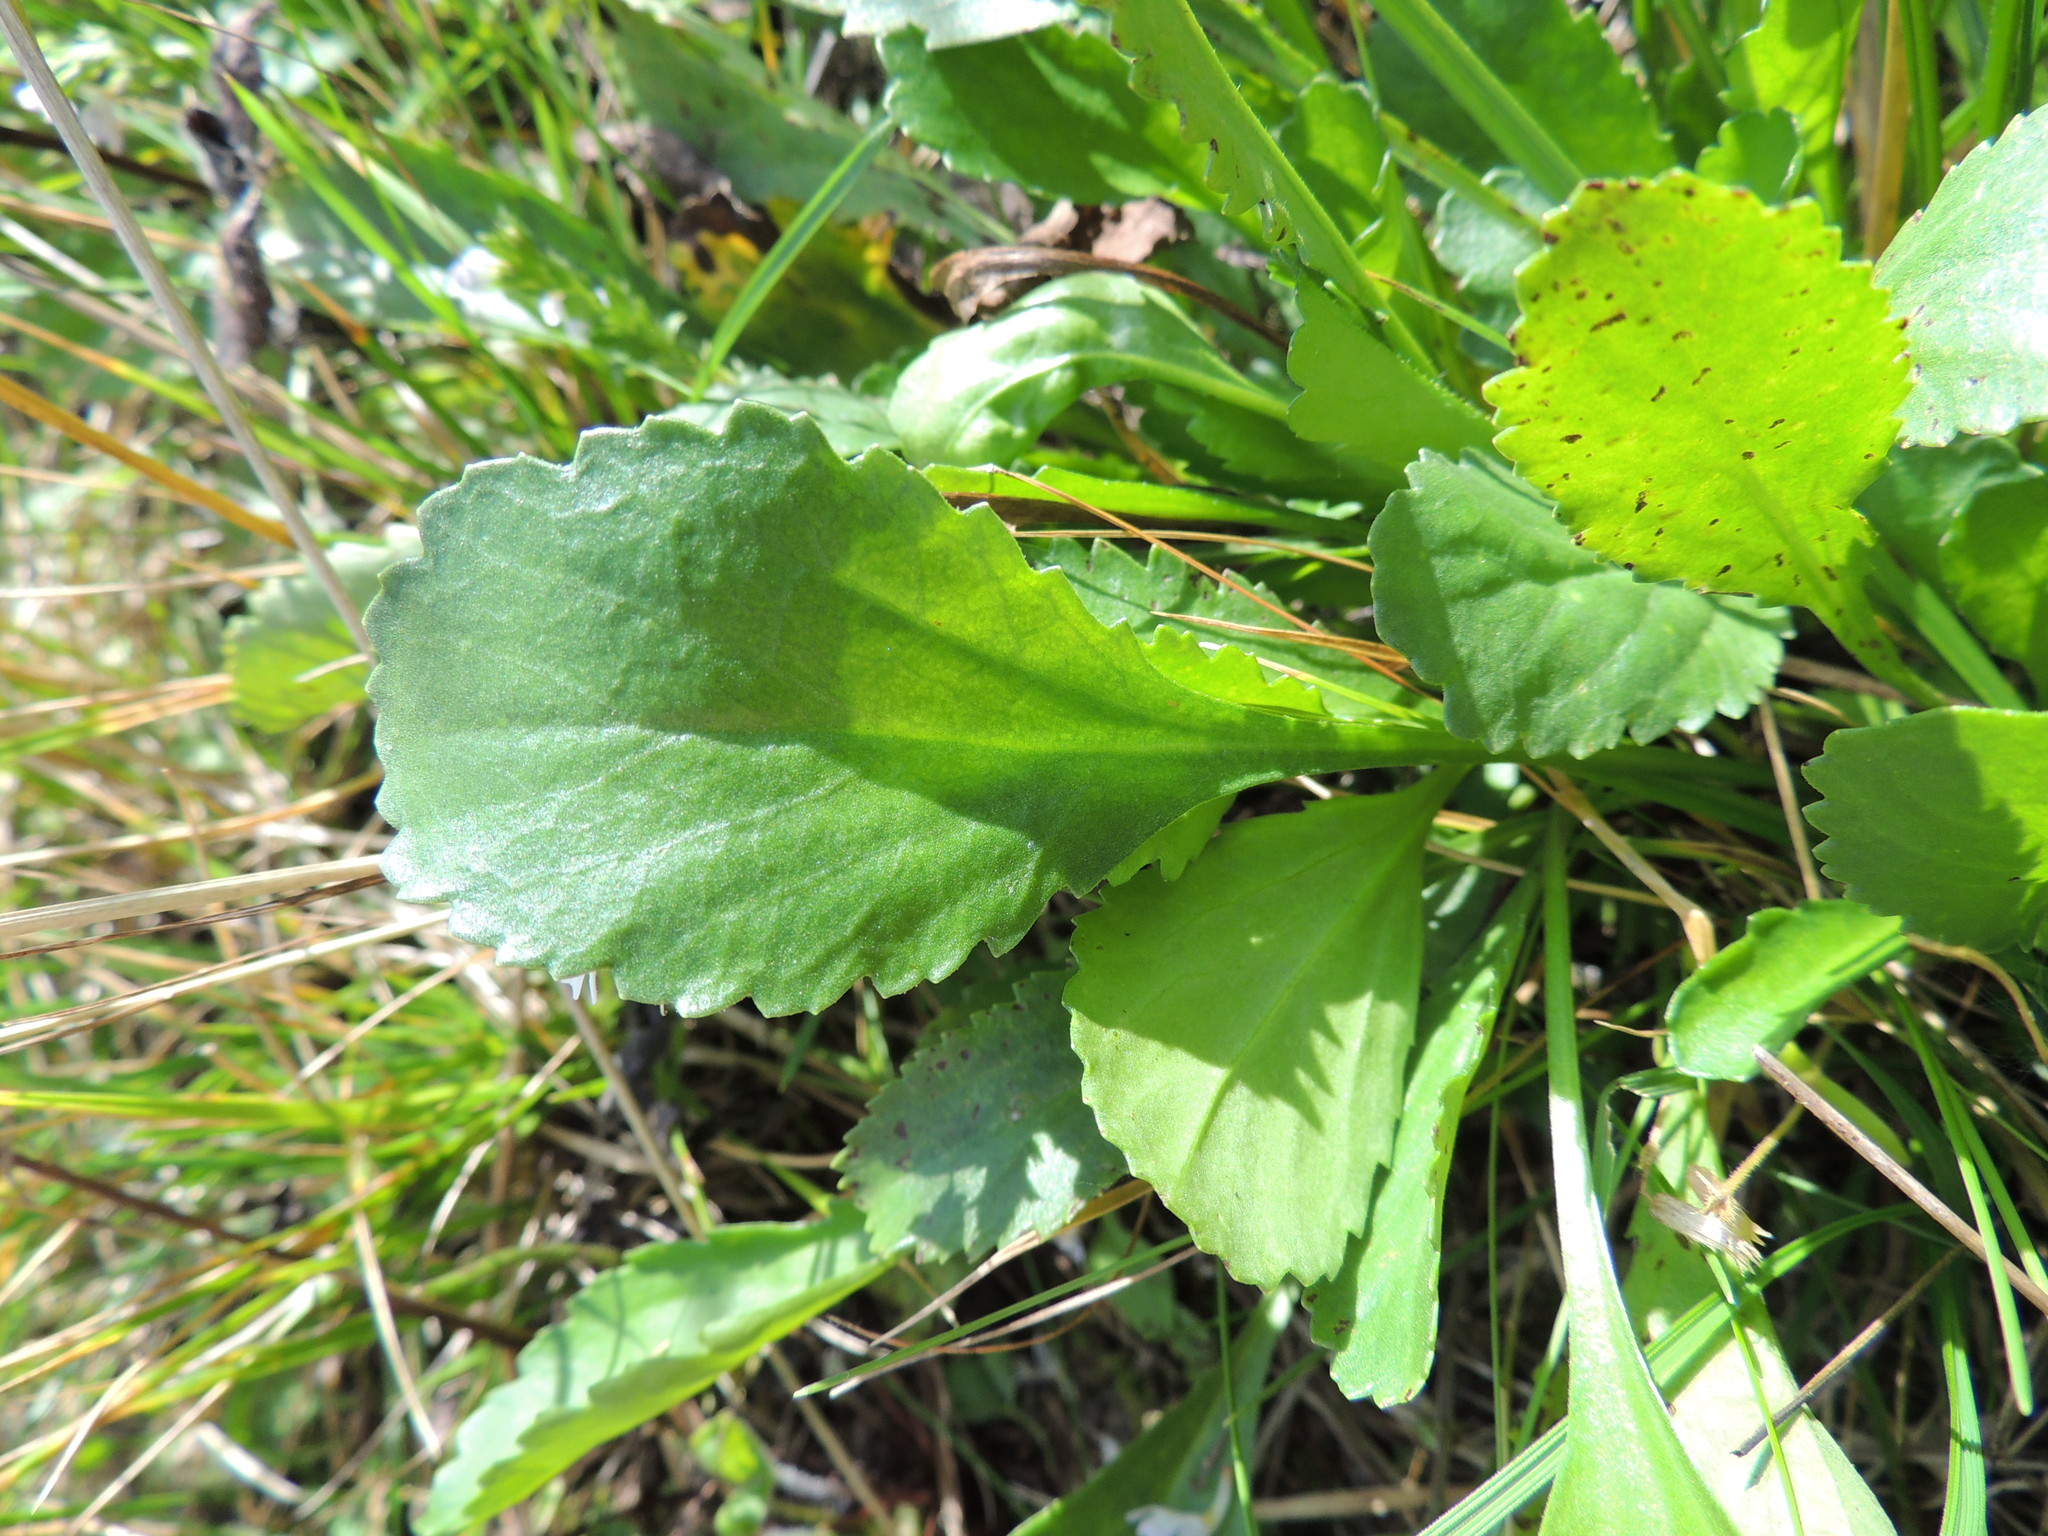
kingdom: Plantae
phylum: Tracheophyta
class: Magnoliopsida
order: Asterales
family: Asteraceae
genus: Leucanthemum
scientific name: Leucanthemum ircutianum
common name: Daisy
